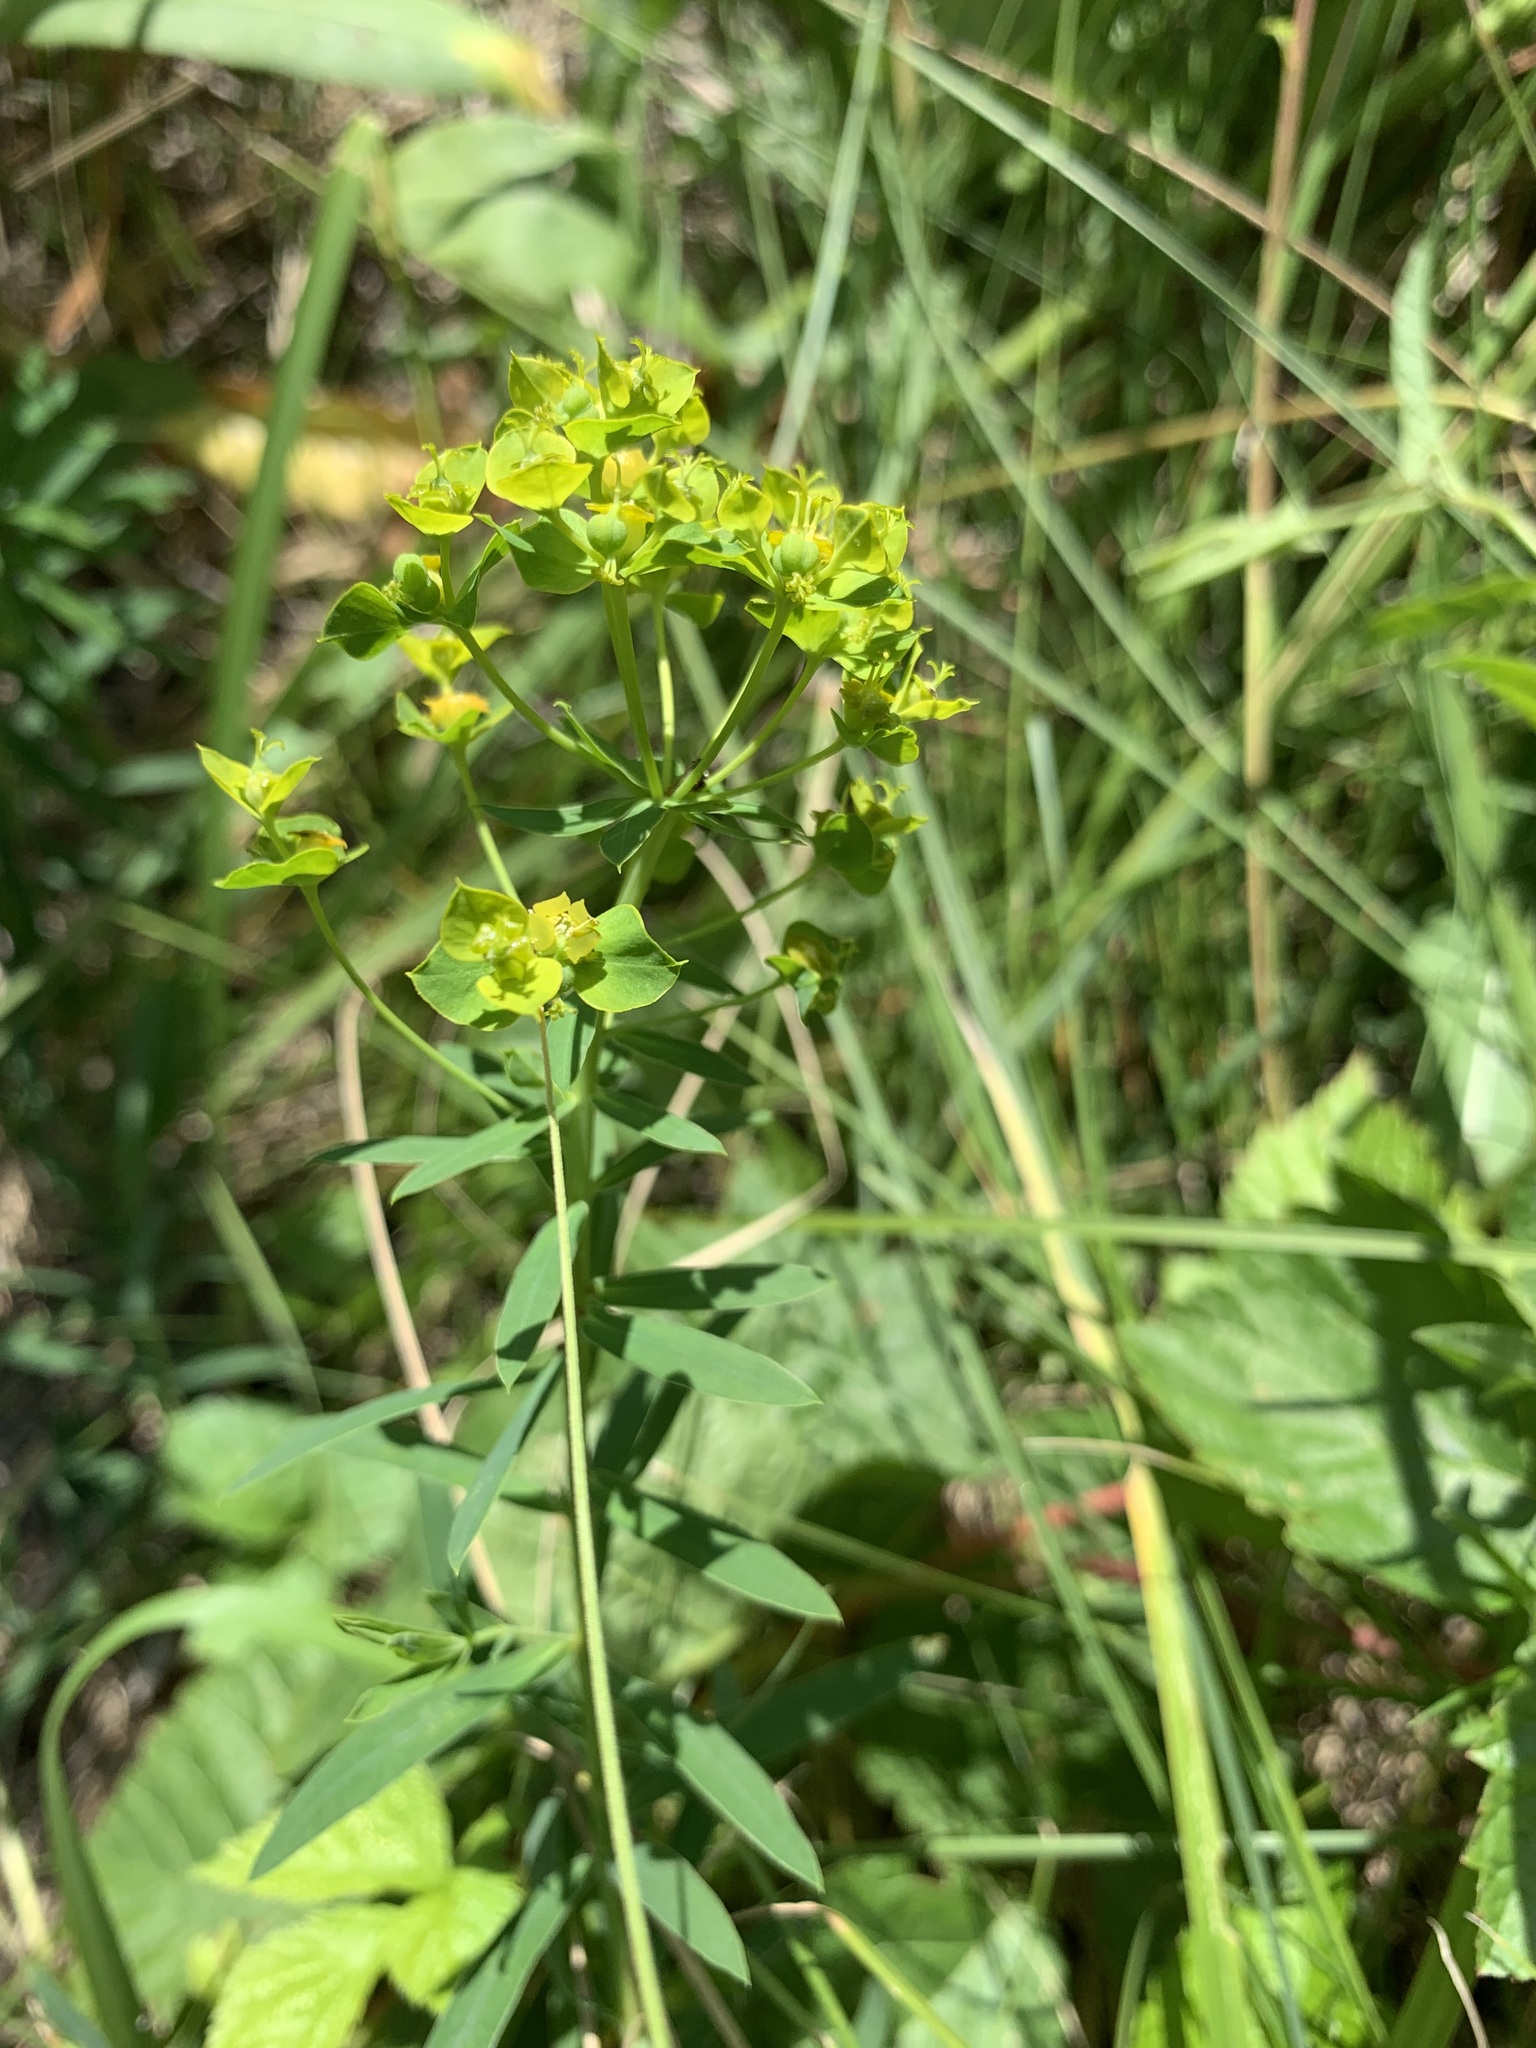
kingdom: Plantae
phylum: Tracheophyta
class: Magnoliopsida
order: Malpighiales
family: Euphorbiaceae
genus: Euphorbia
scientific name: Euphorbia virgata
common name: Leafy spurge
